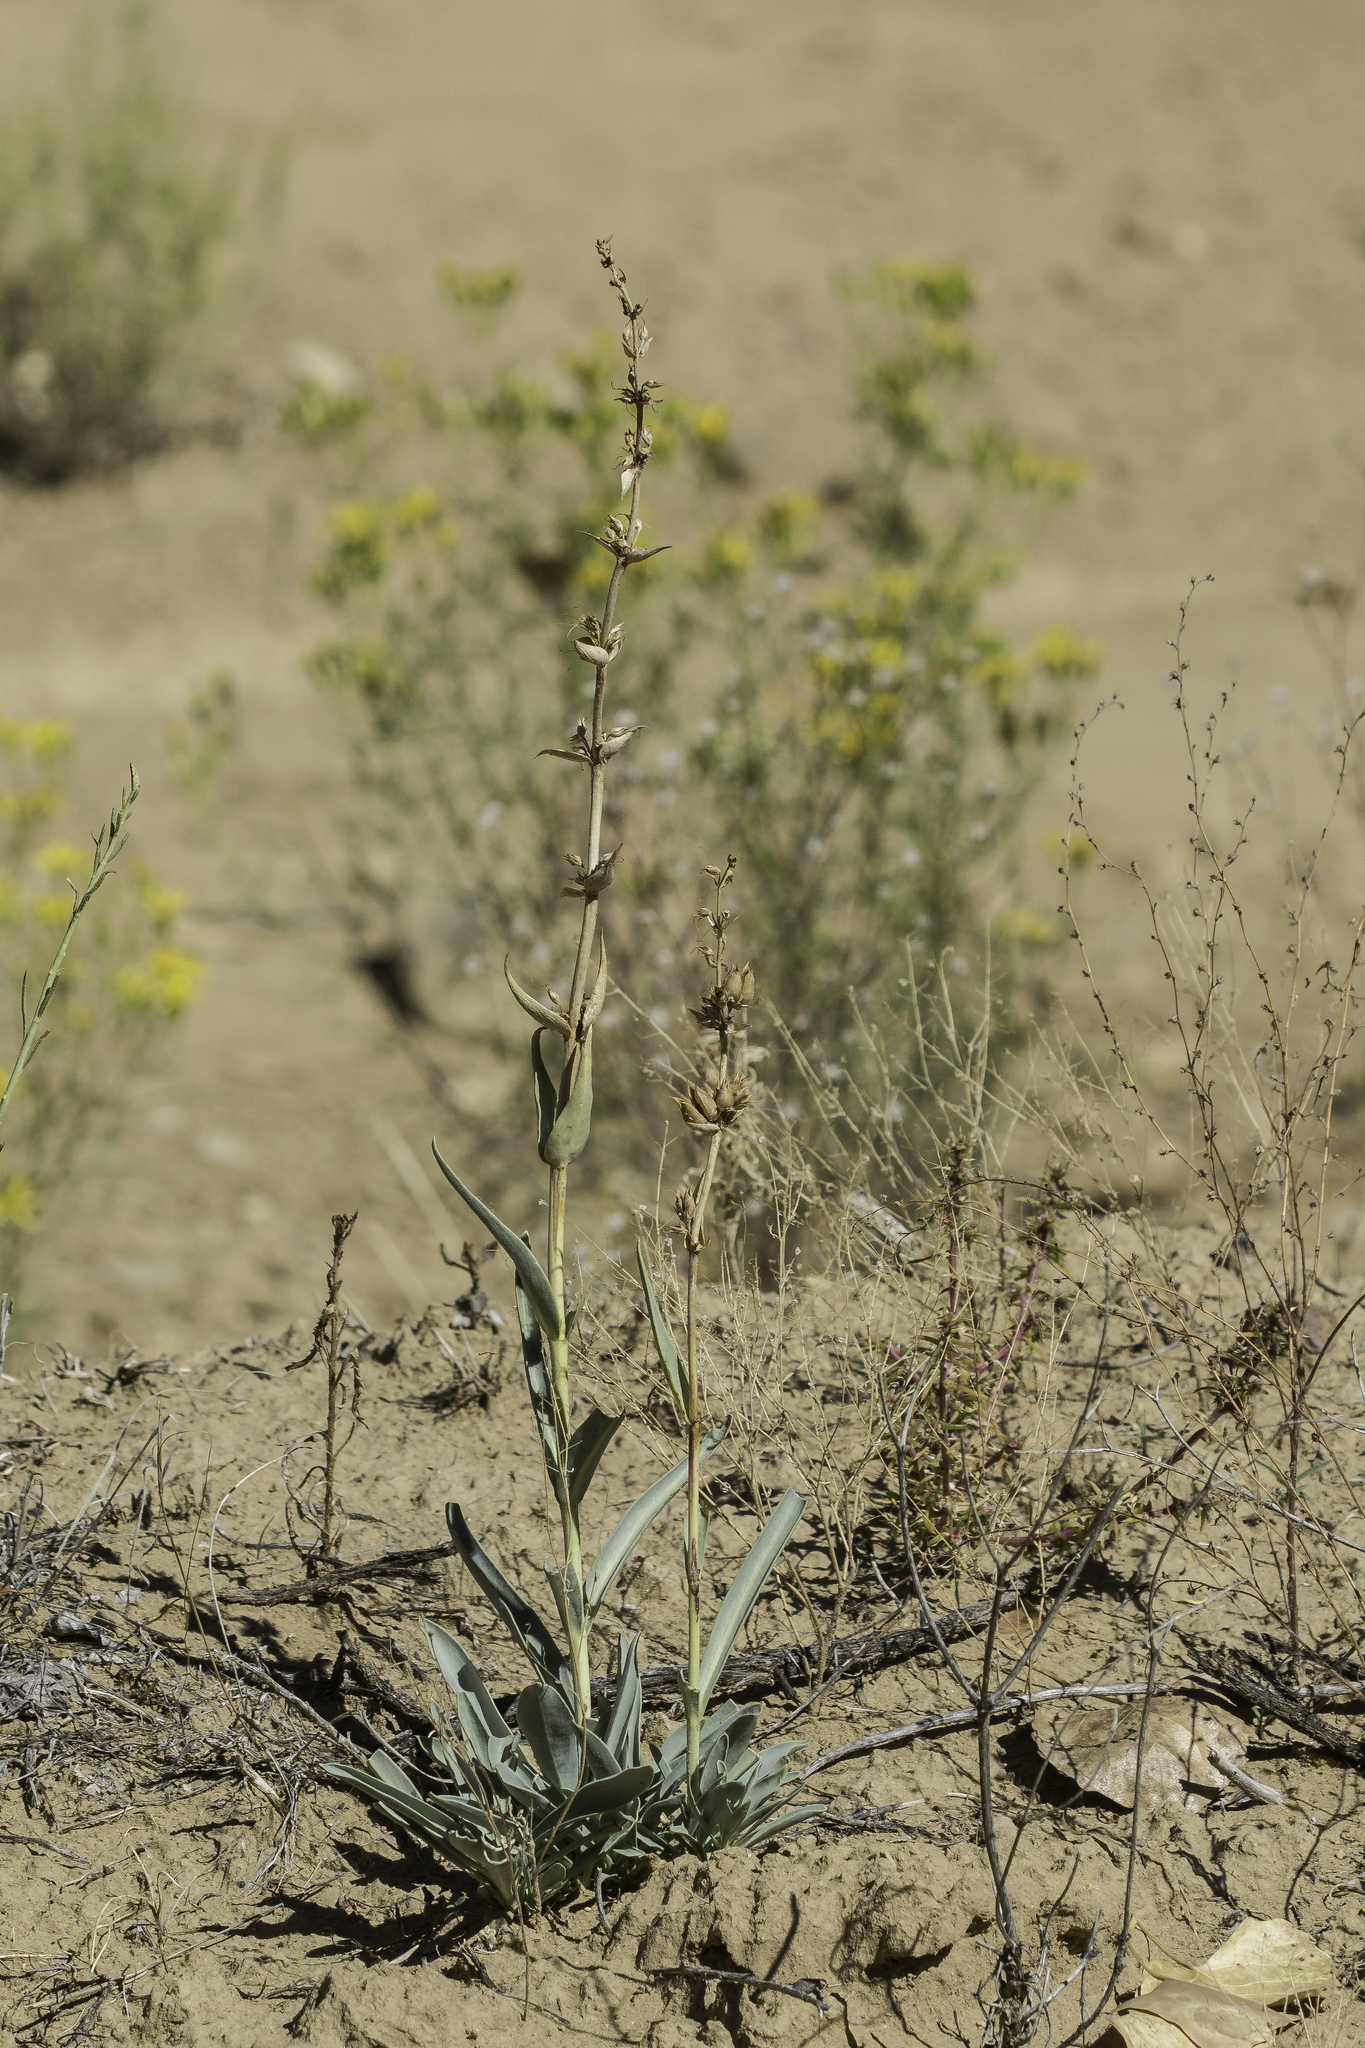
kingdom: Plantae
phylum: Tracheophyta
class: Magnoliopsida
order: Lamiales
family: Plantaginaceae
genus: Penstemon
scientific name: Penstemon angustifolius
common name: Narrow beardtongue
